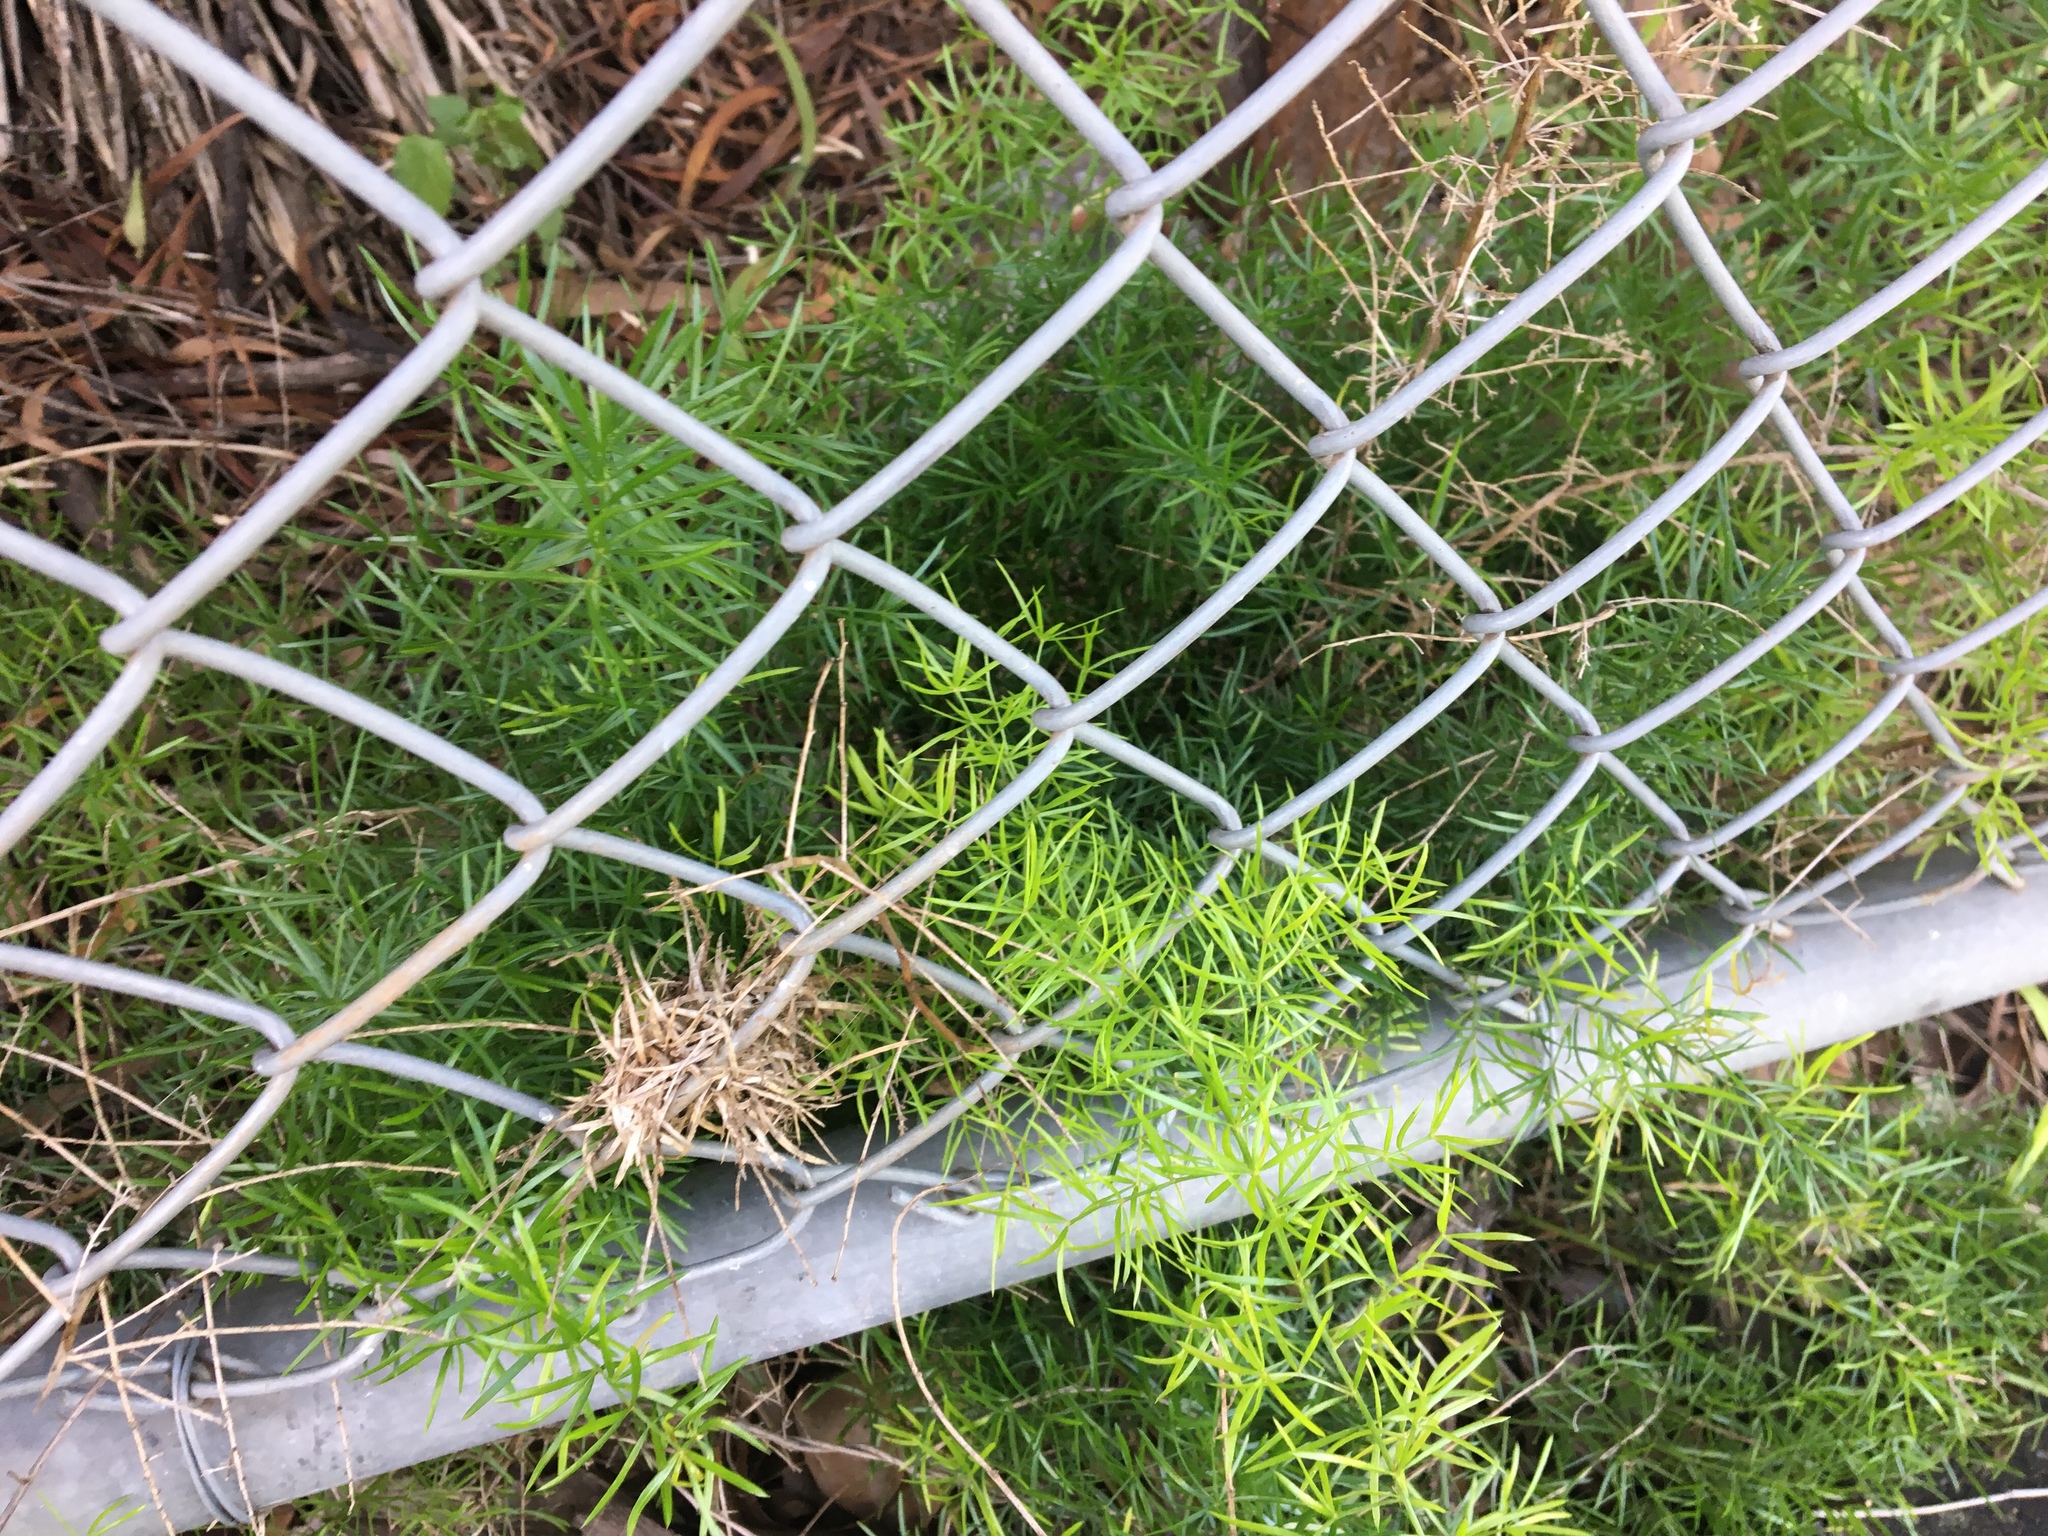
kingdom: Plantae
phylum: Tracheophyta
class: Liliopsida
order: Asparagales
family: Asparagaceae
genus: Asparagus
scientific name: Asparagus aethiopicus
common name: Sprenger's asparagus fern
